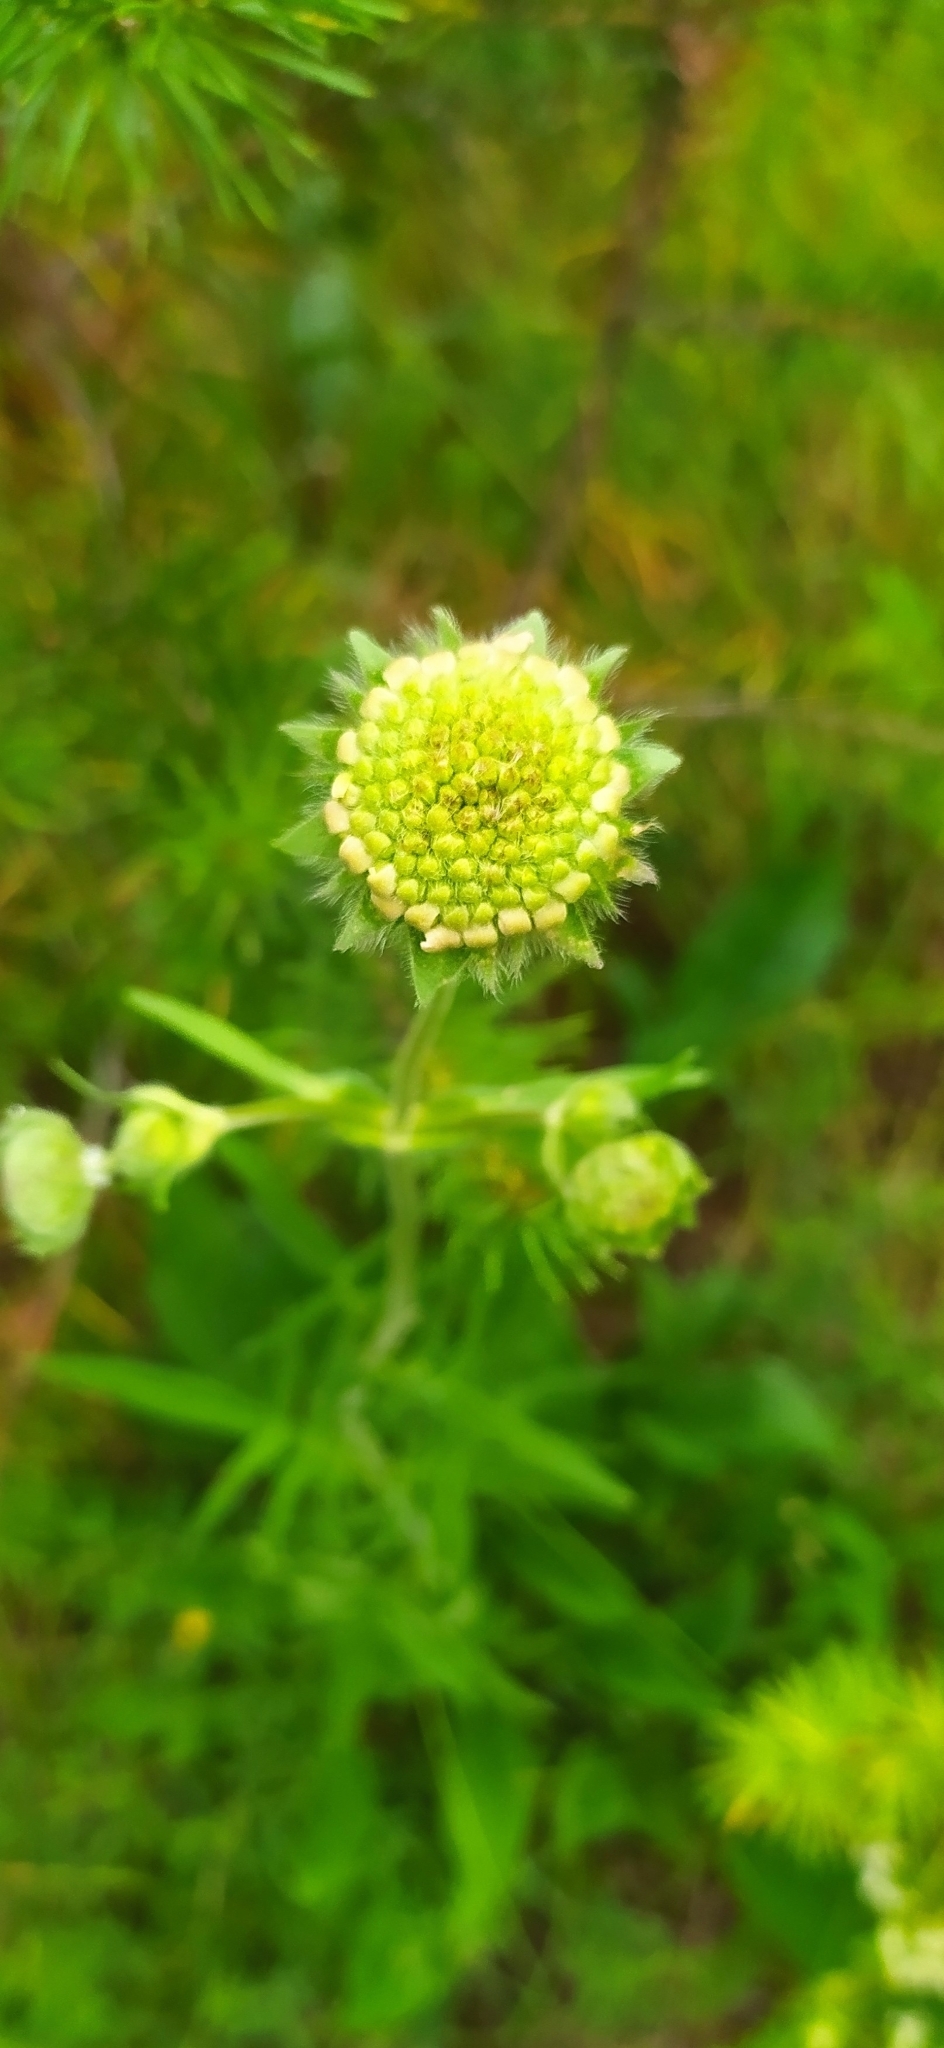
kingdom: Plantae
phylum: Tracheophyta
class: Magnoliopsida
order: Dipsacales
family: Caprifoliaceae
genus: Knautia
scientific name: Knautia arvensis
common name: Field scabiosa
